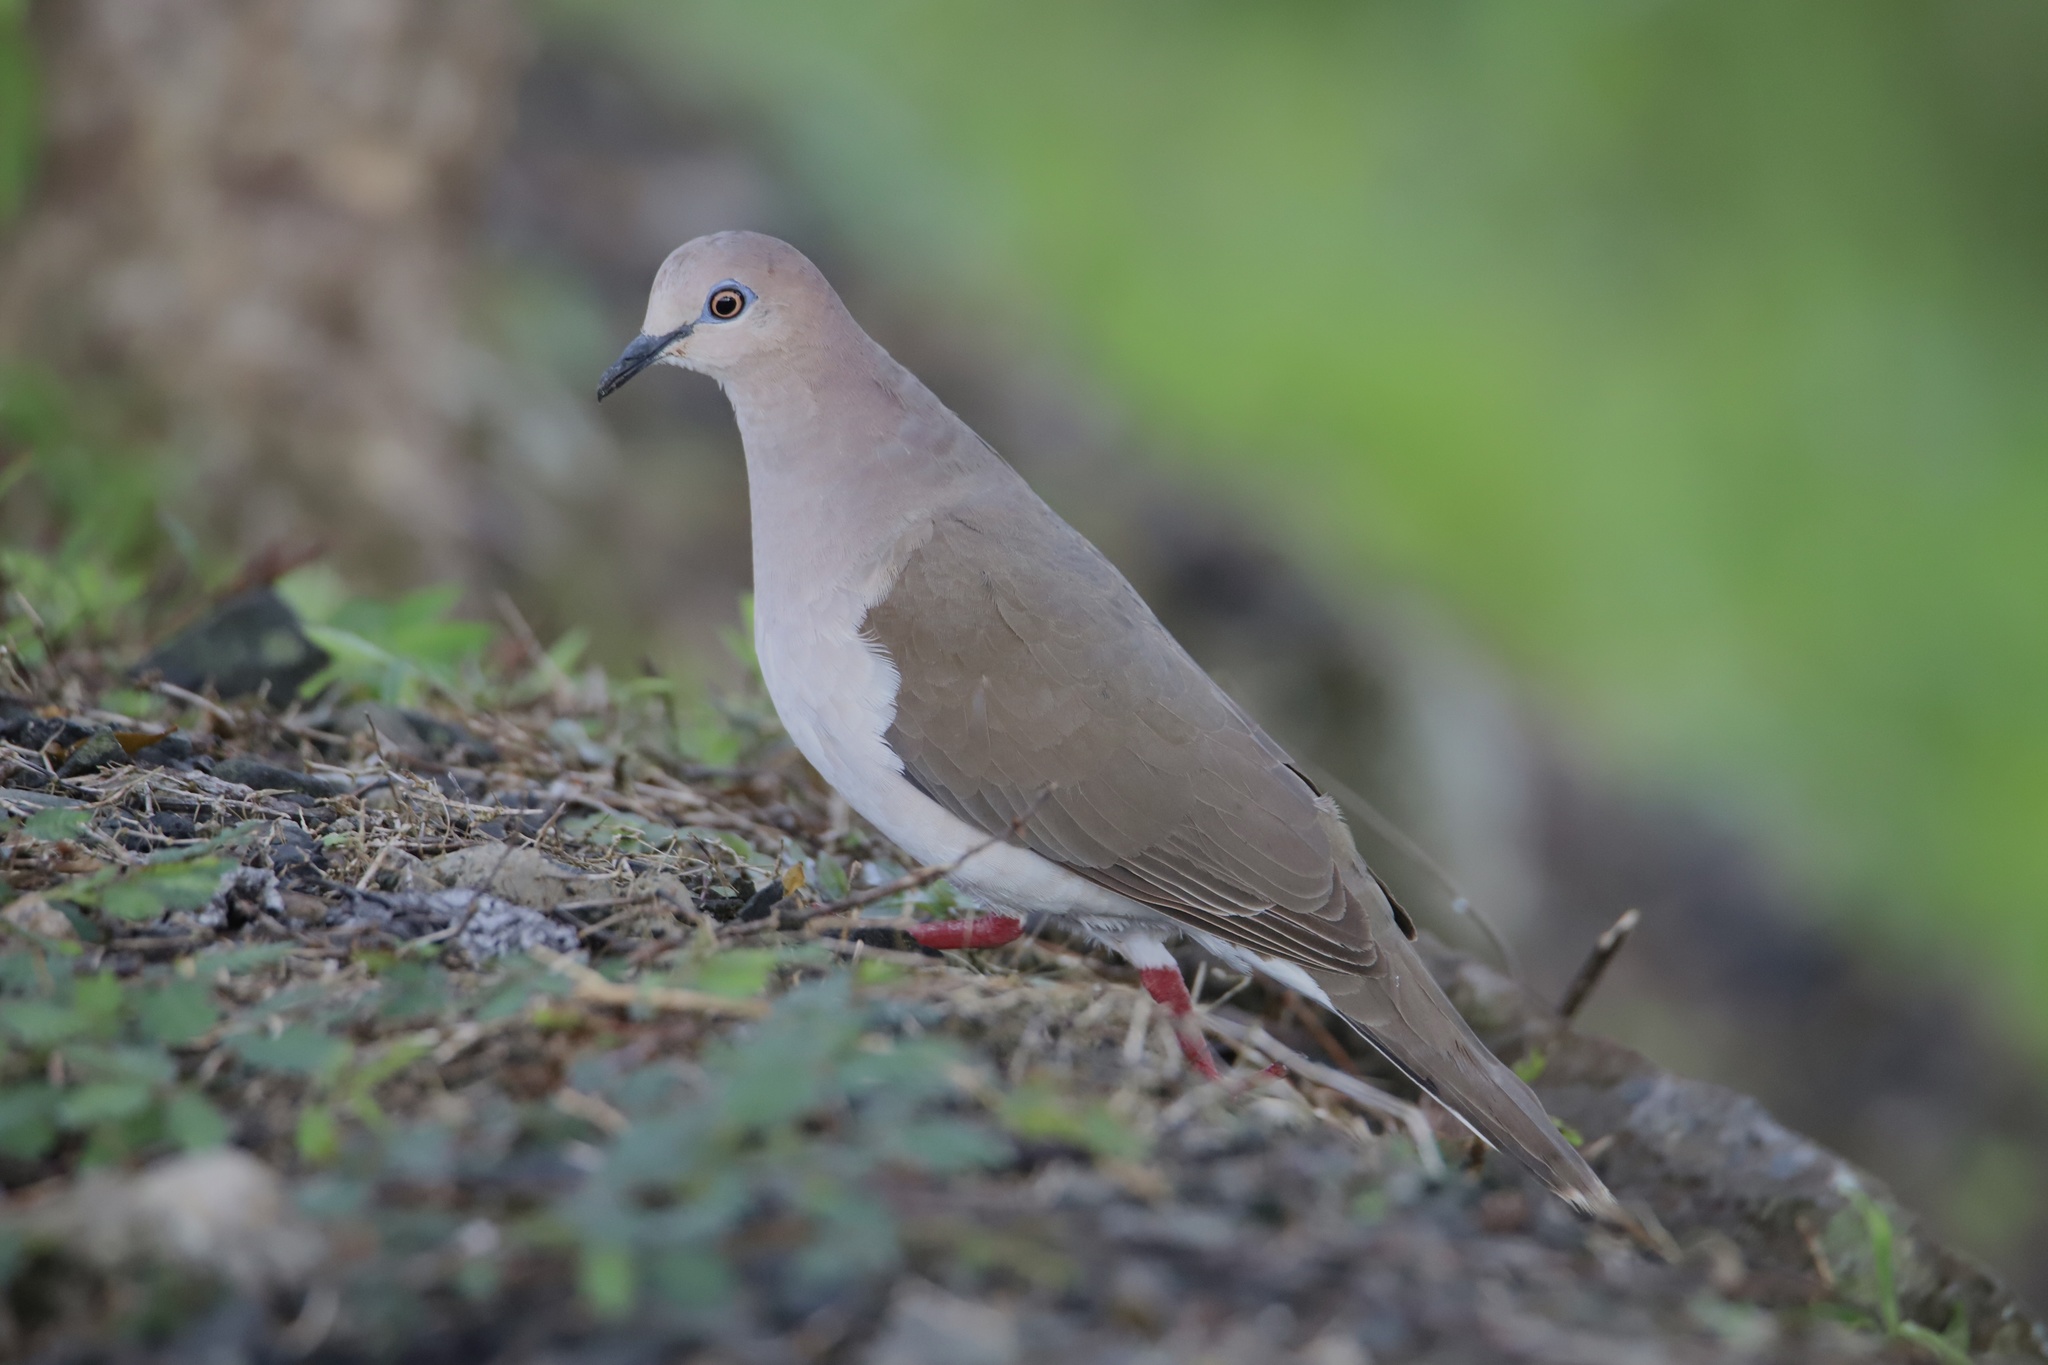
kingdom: Animalia
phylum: Chordata
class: Aves
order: Columbiformes
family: Columbidae
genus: Leptotila
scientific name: Leptotila verreauxi
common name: White-tipped dove
